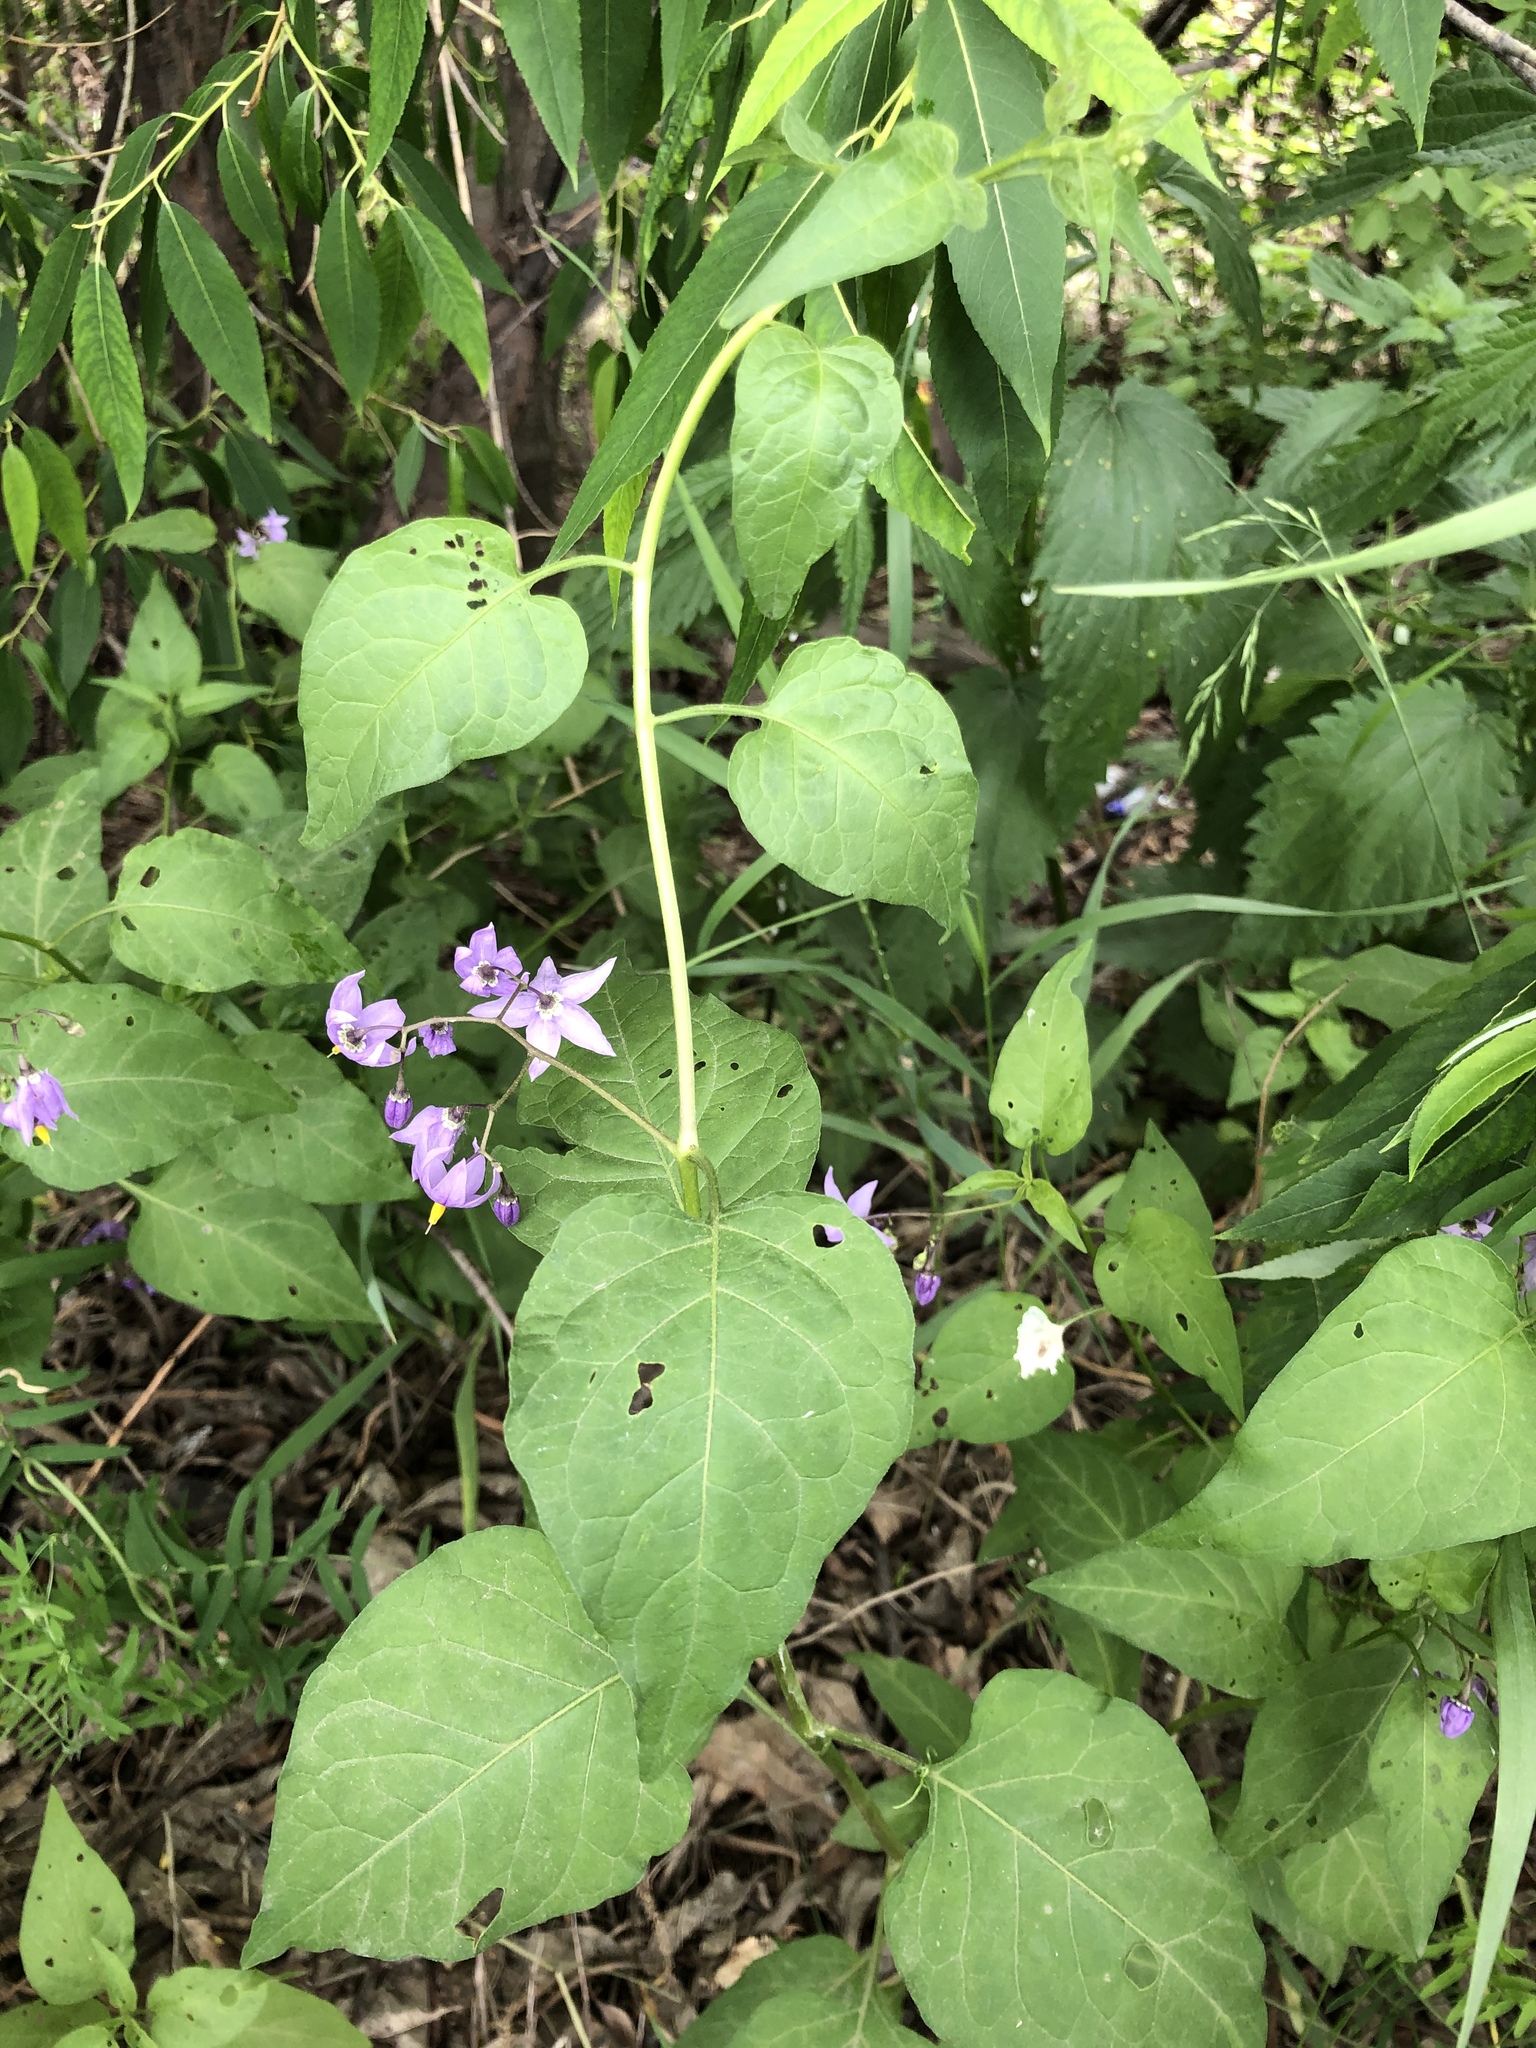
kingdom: Plantae
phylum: Tracheophyta
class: Magnoliopsida
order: Solanales
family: Solanaceae
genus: Solanum
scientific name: Solanum dulcamara
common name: Climbing nightshade
